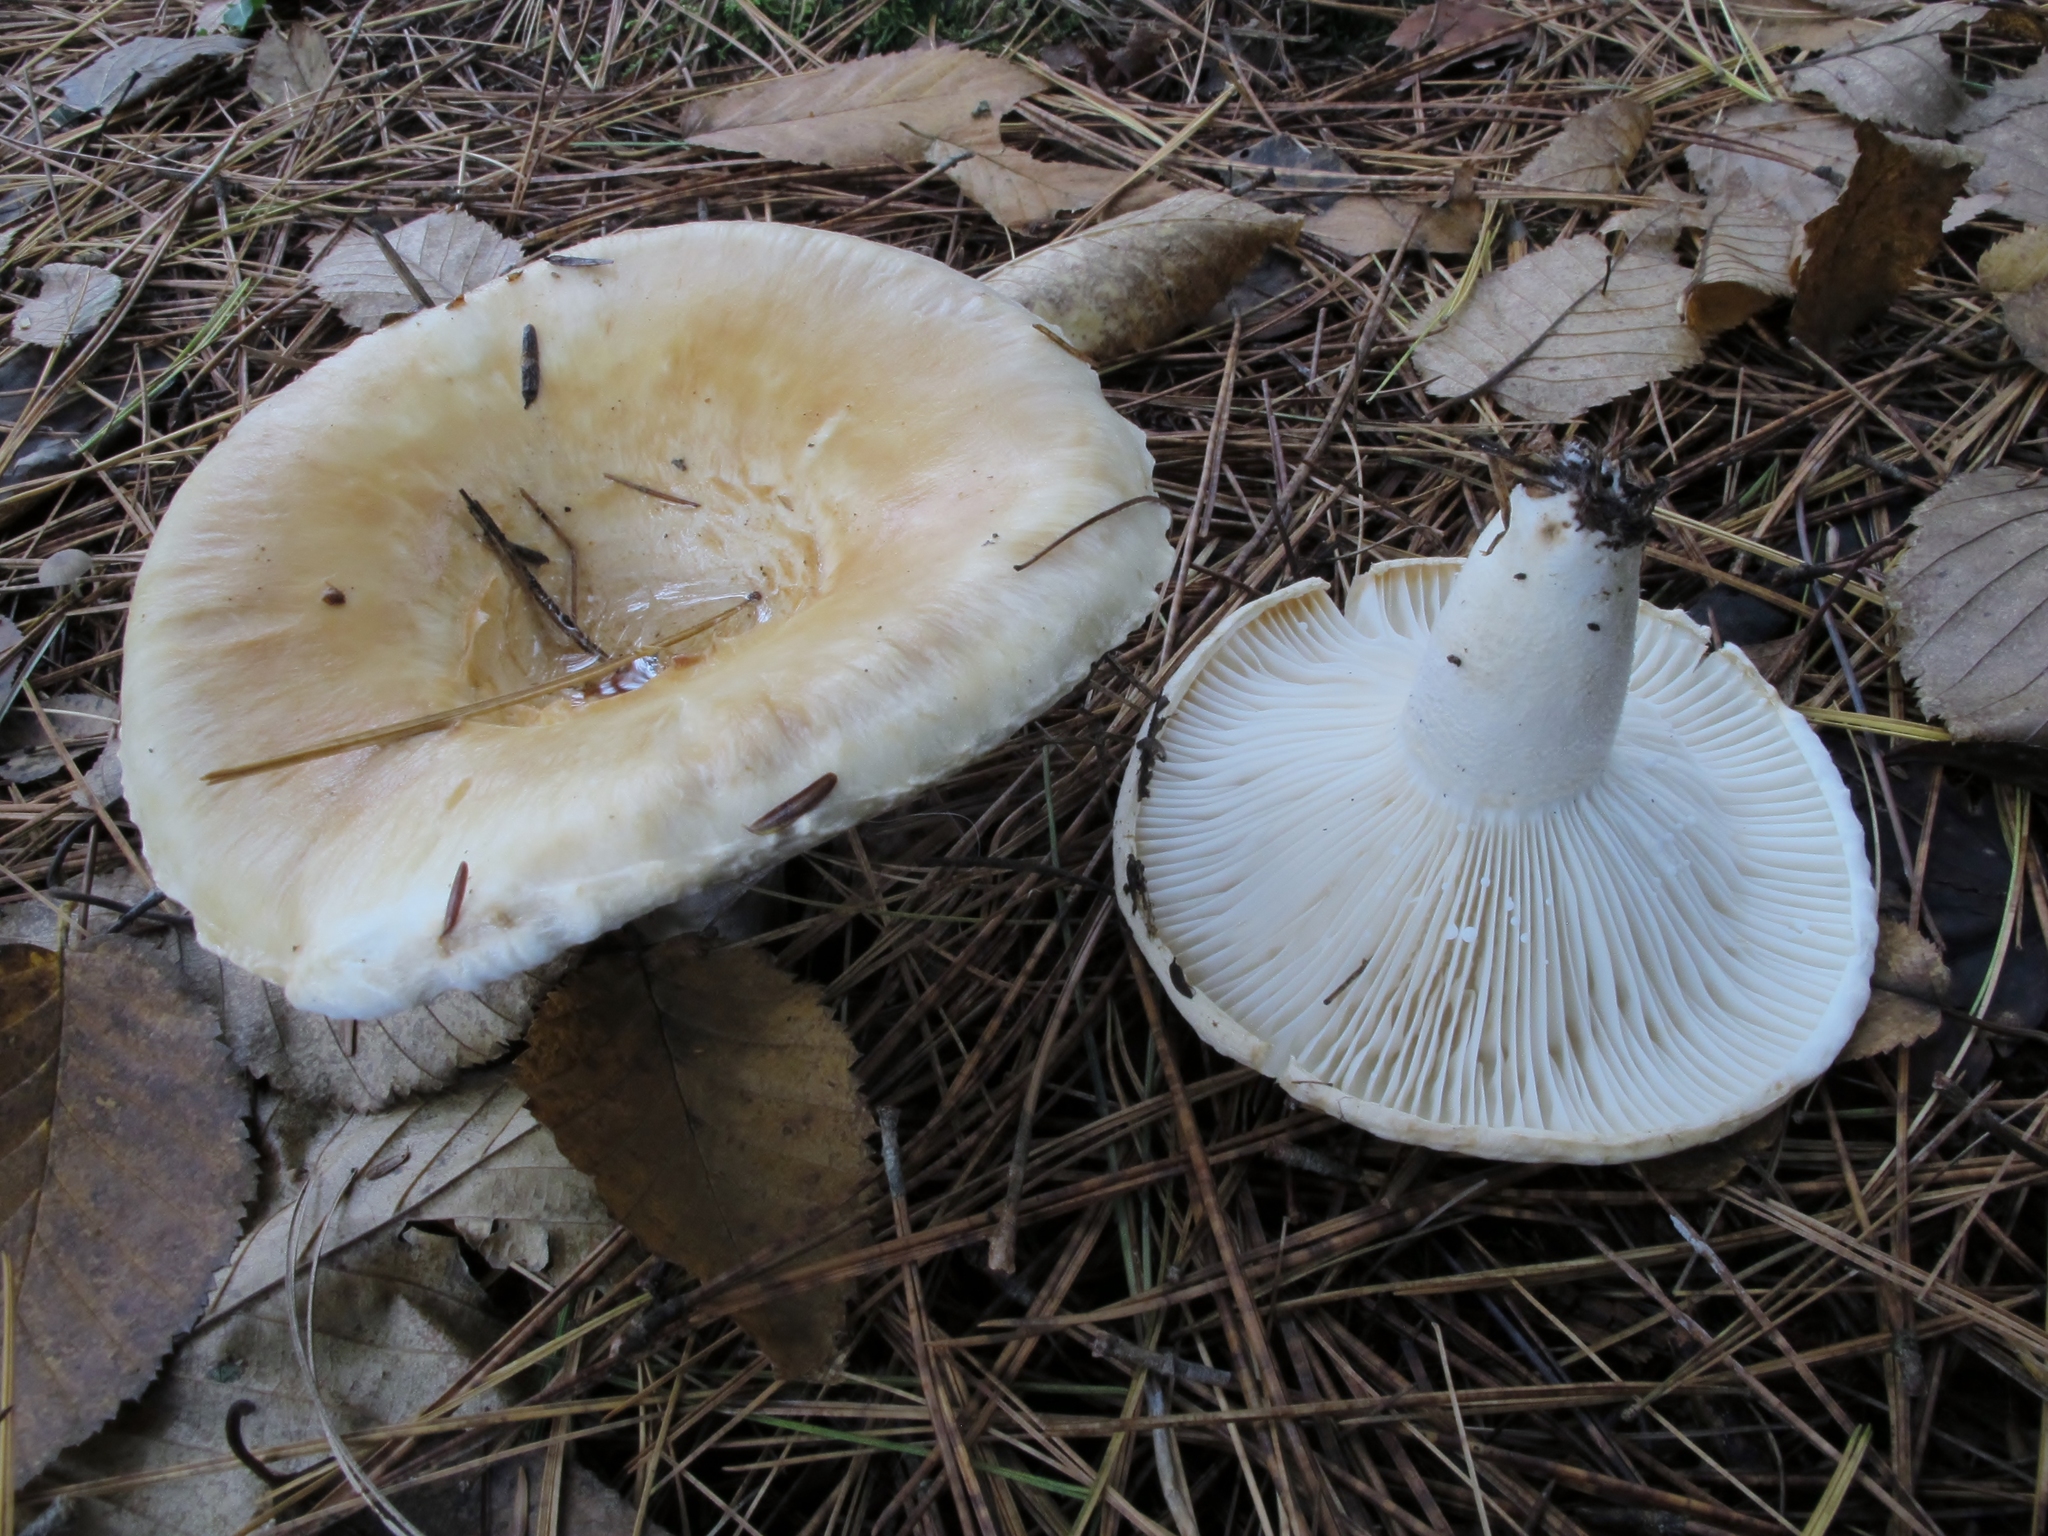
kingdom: Fungi
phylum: Basidiomycota
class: Agaricomycetes
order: Russulales
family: Russulaceae
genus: Lactifluus
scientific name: Lactifluus
